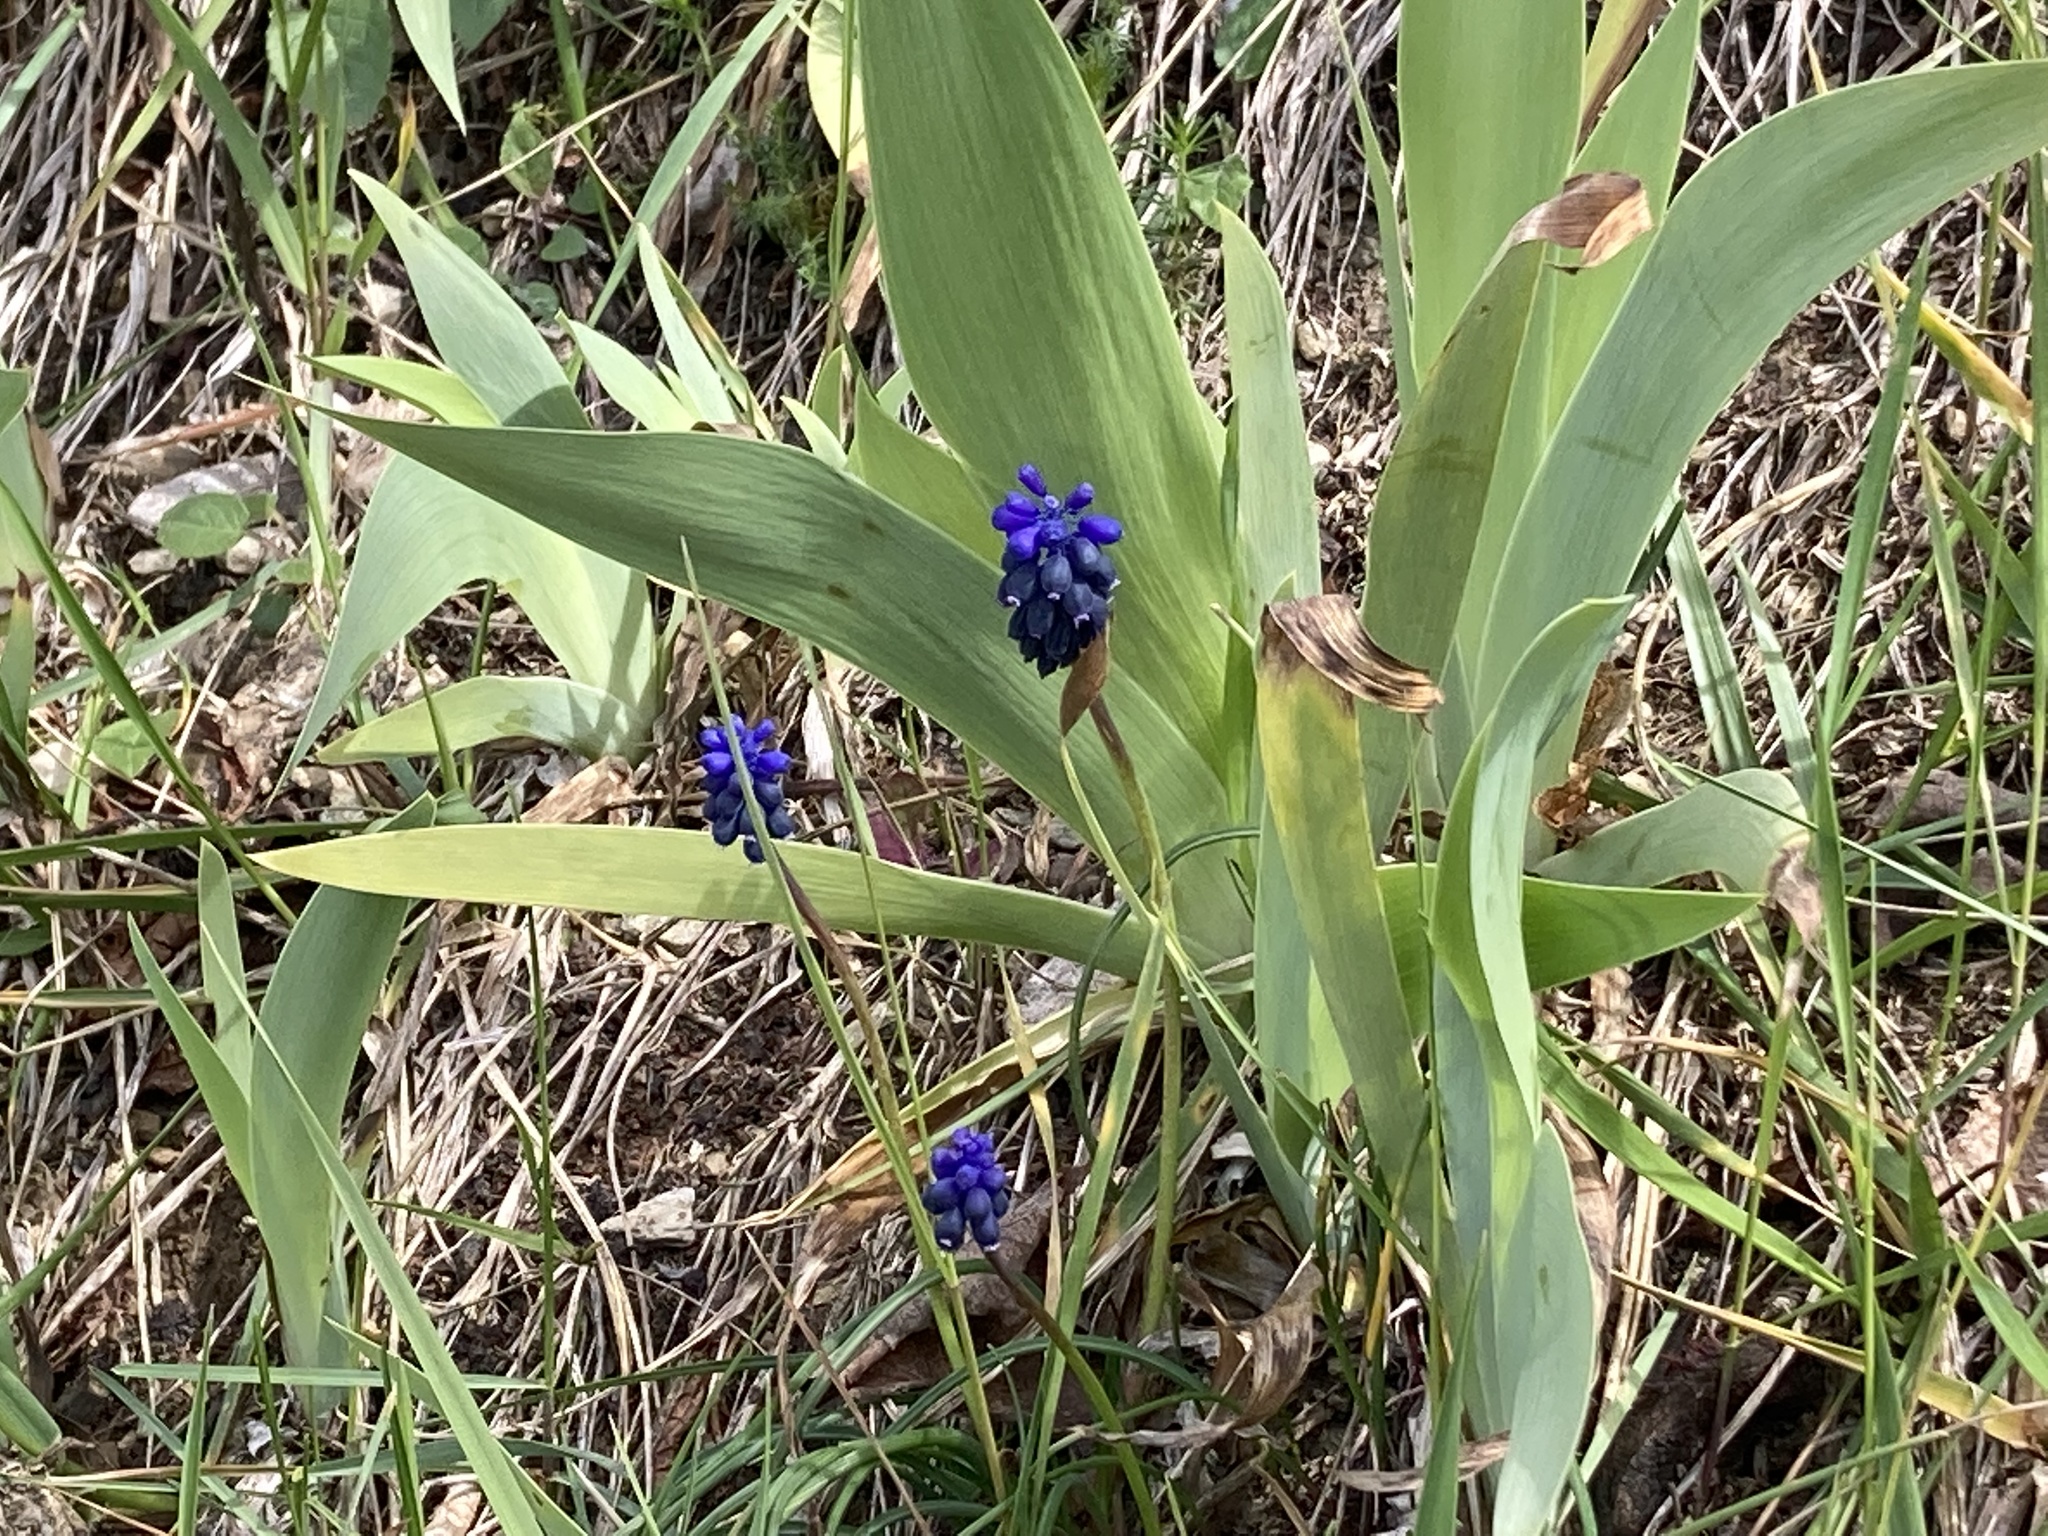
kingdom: Plantae
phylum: Tracheophyta
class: Liliopsida
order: Asparagales
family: Asparagaceae
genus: Muscari
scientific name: Muscari neglectum
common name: Grape-hyacinth
